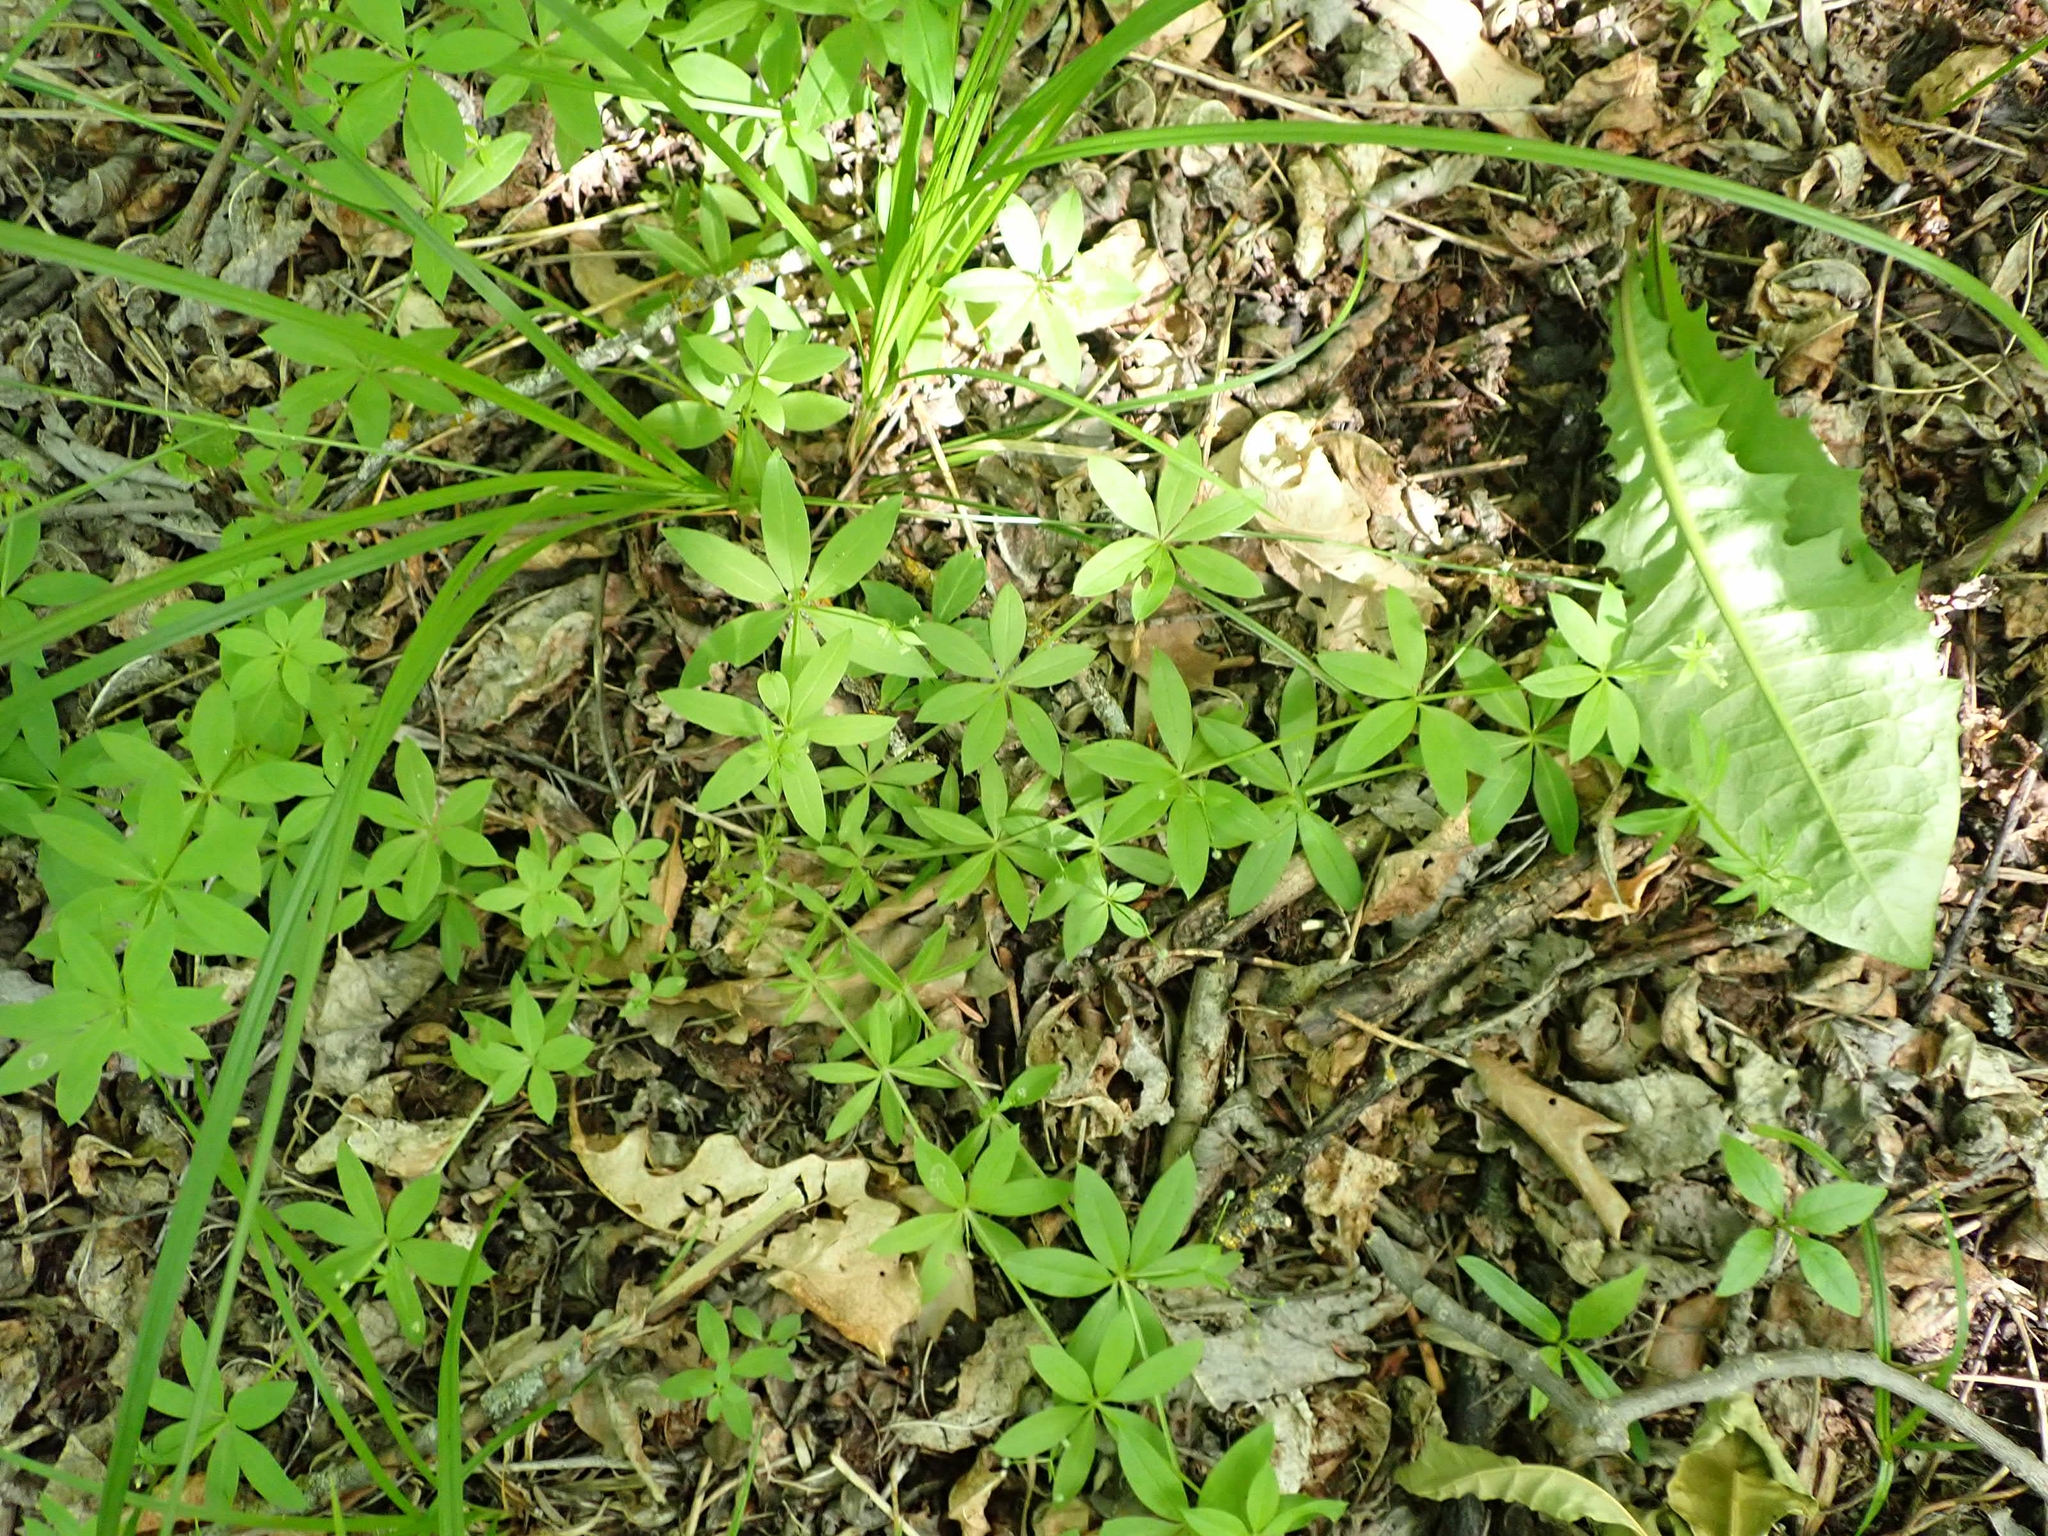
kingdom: Plantae
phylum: Tracheophyta
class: Magnoliopsida
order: Gentianales
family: Rubiaceae
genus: Galium
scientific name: Galium triflorum
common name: Fragrant bedstraw
